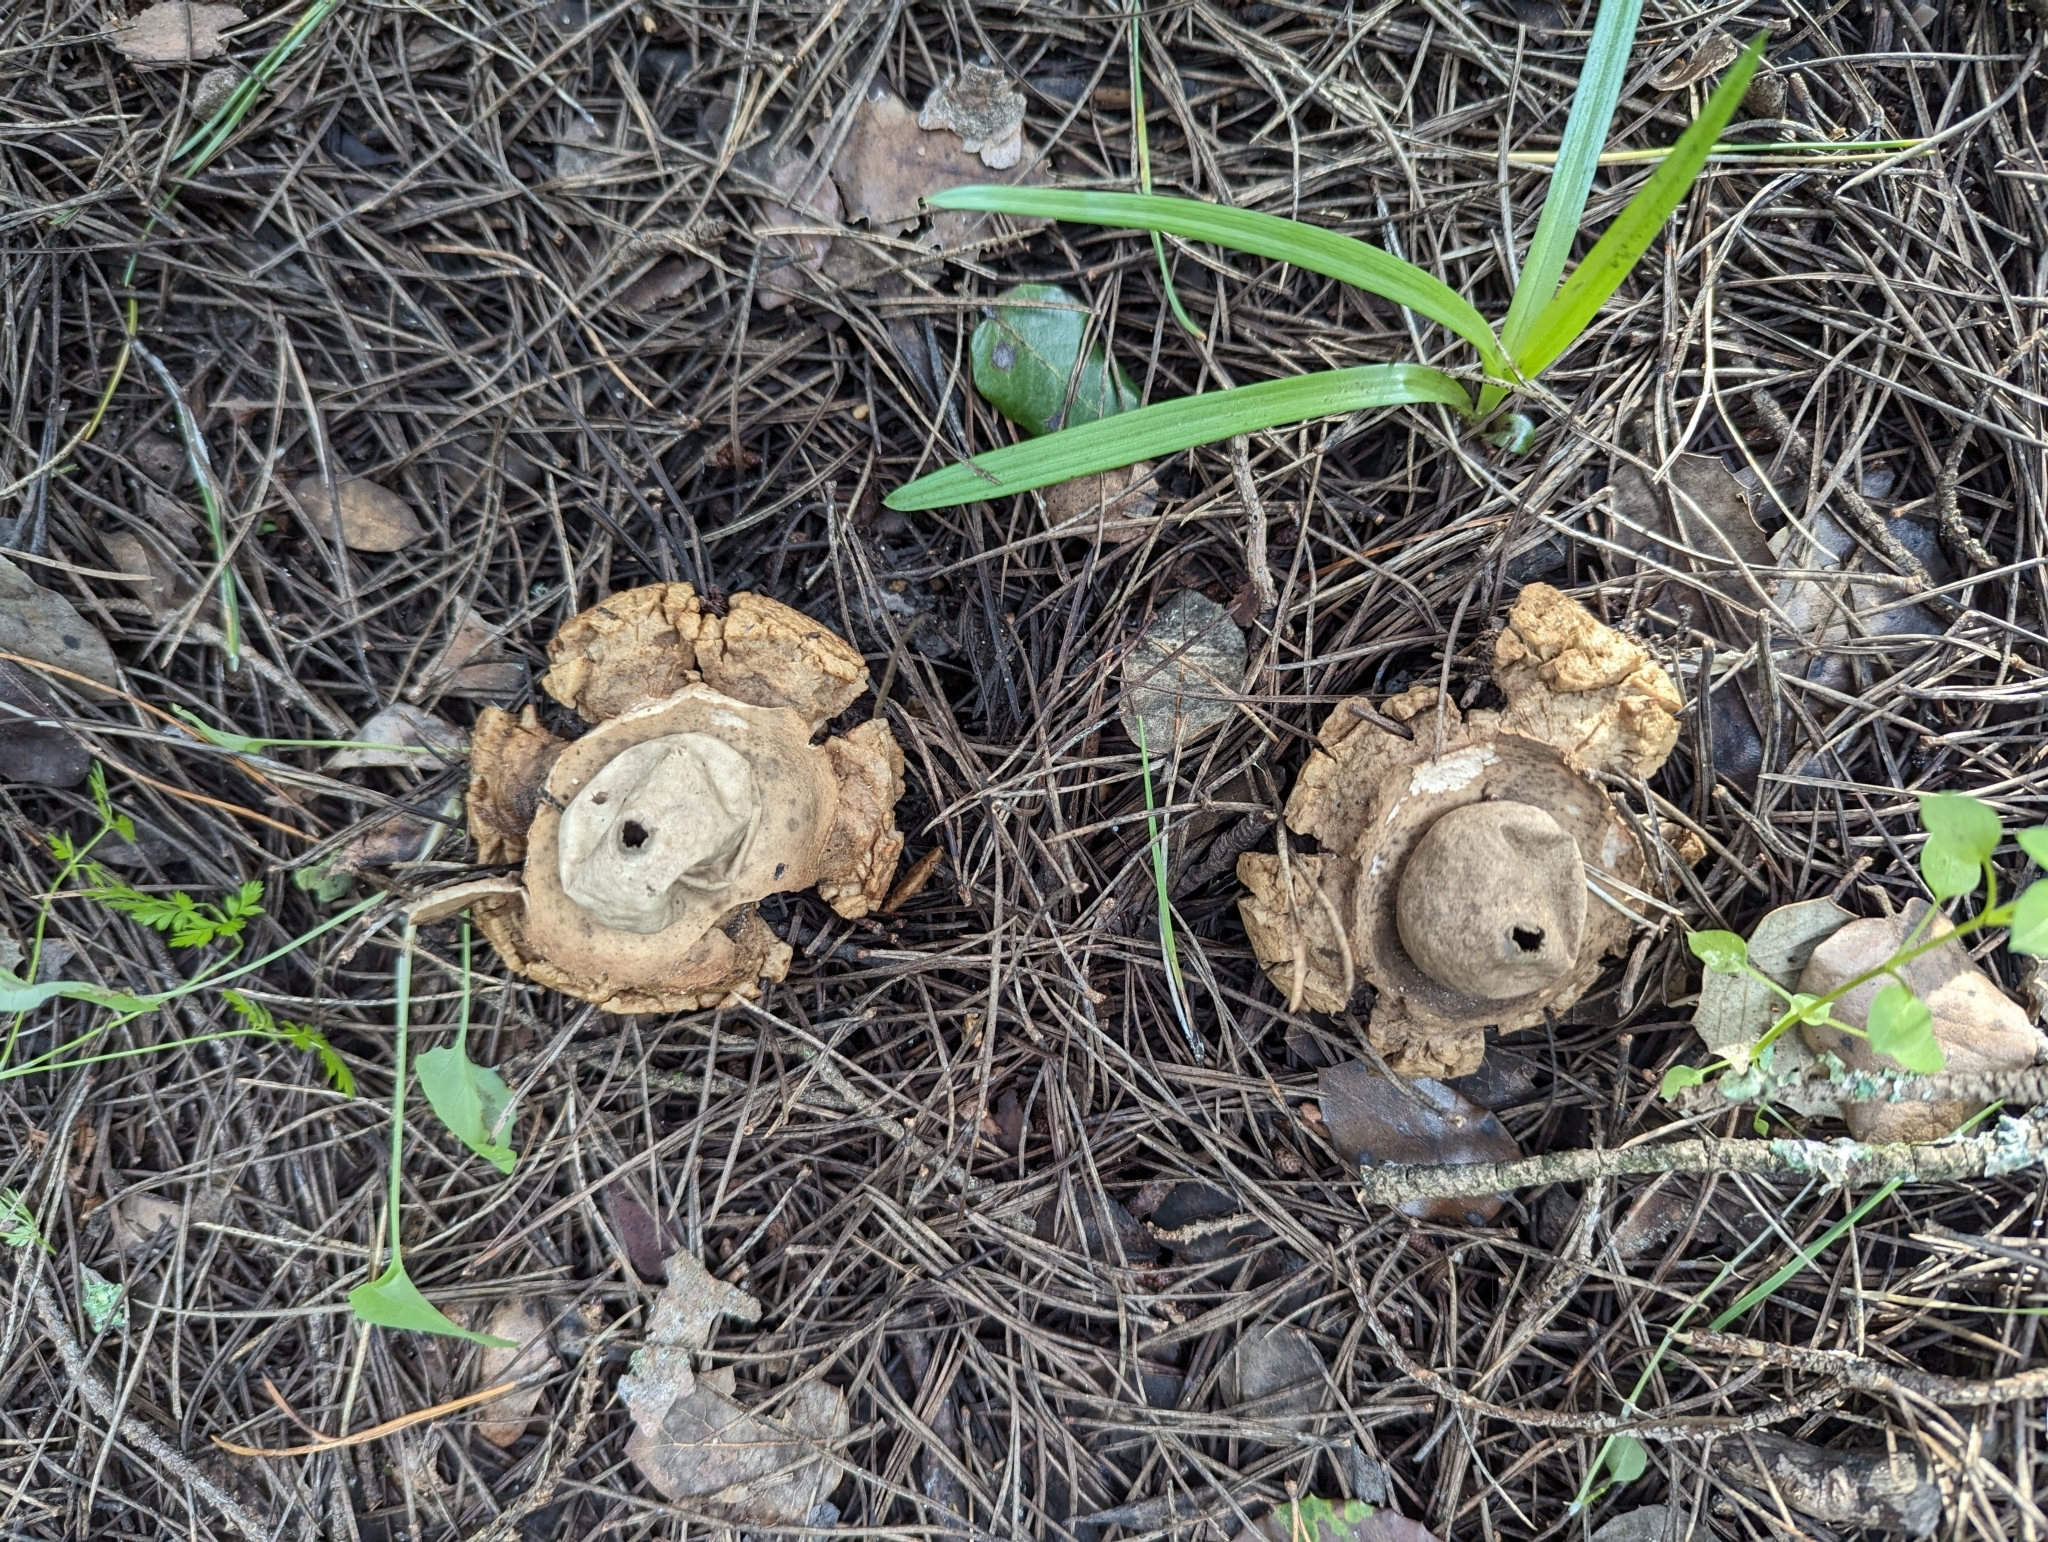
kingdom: Fungi
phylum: Basidiomycota
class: Agaricomycetes
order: Geastrales
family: Geastraceae
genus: Geastrum
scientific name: Geastrum michelianum
